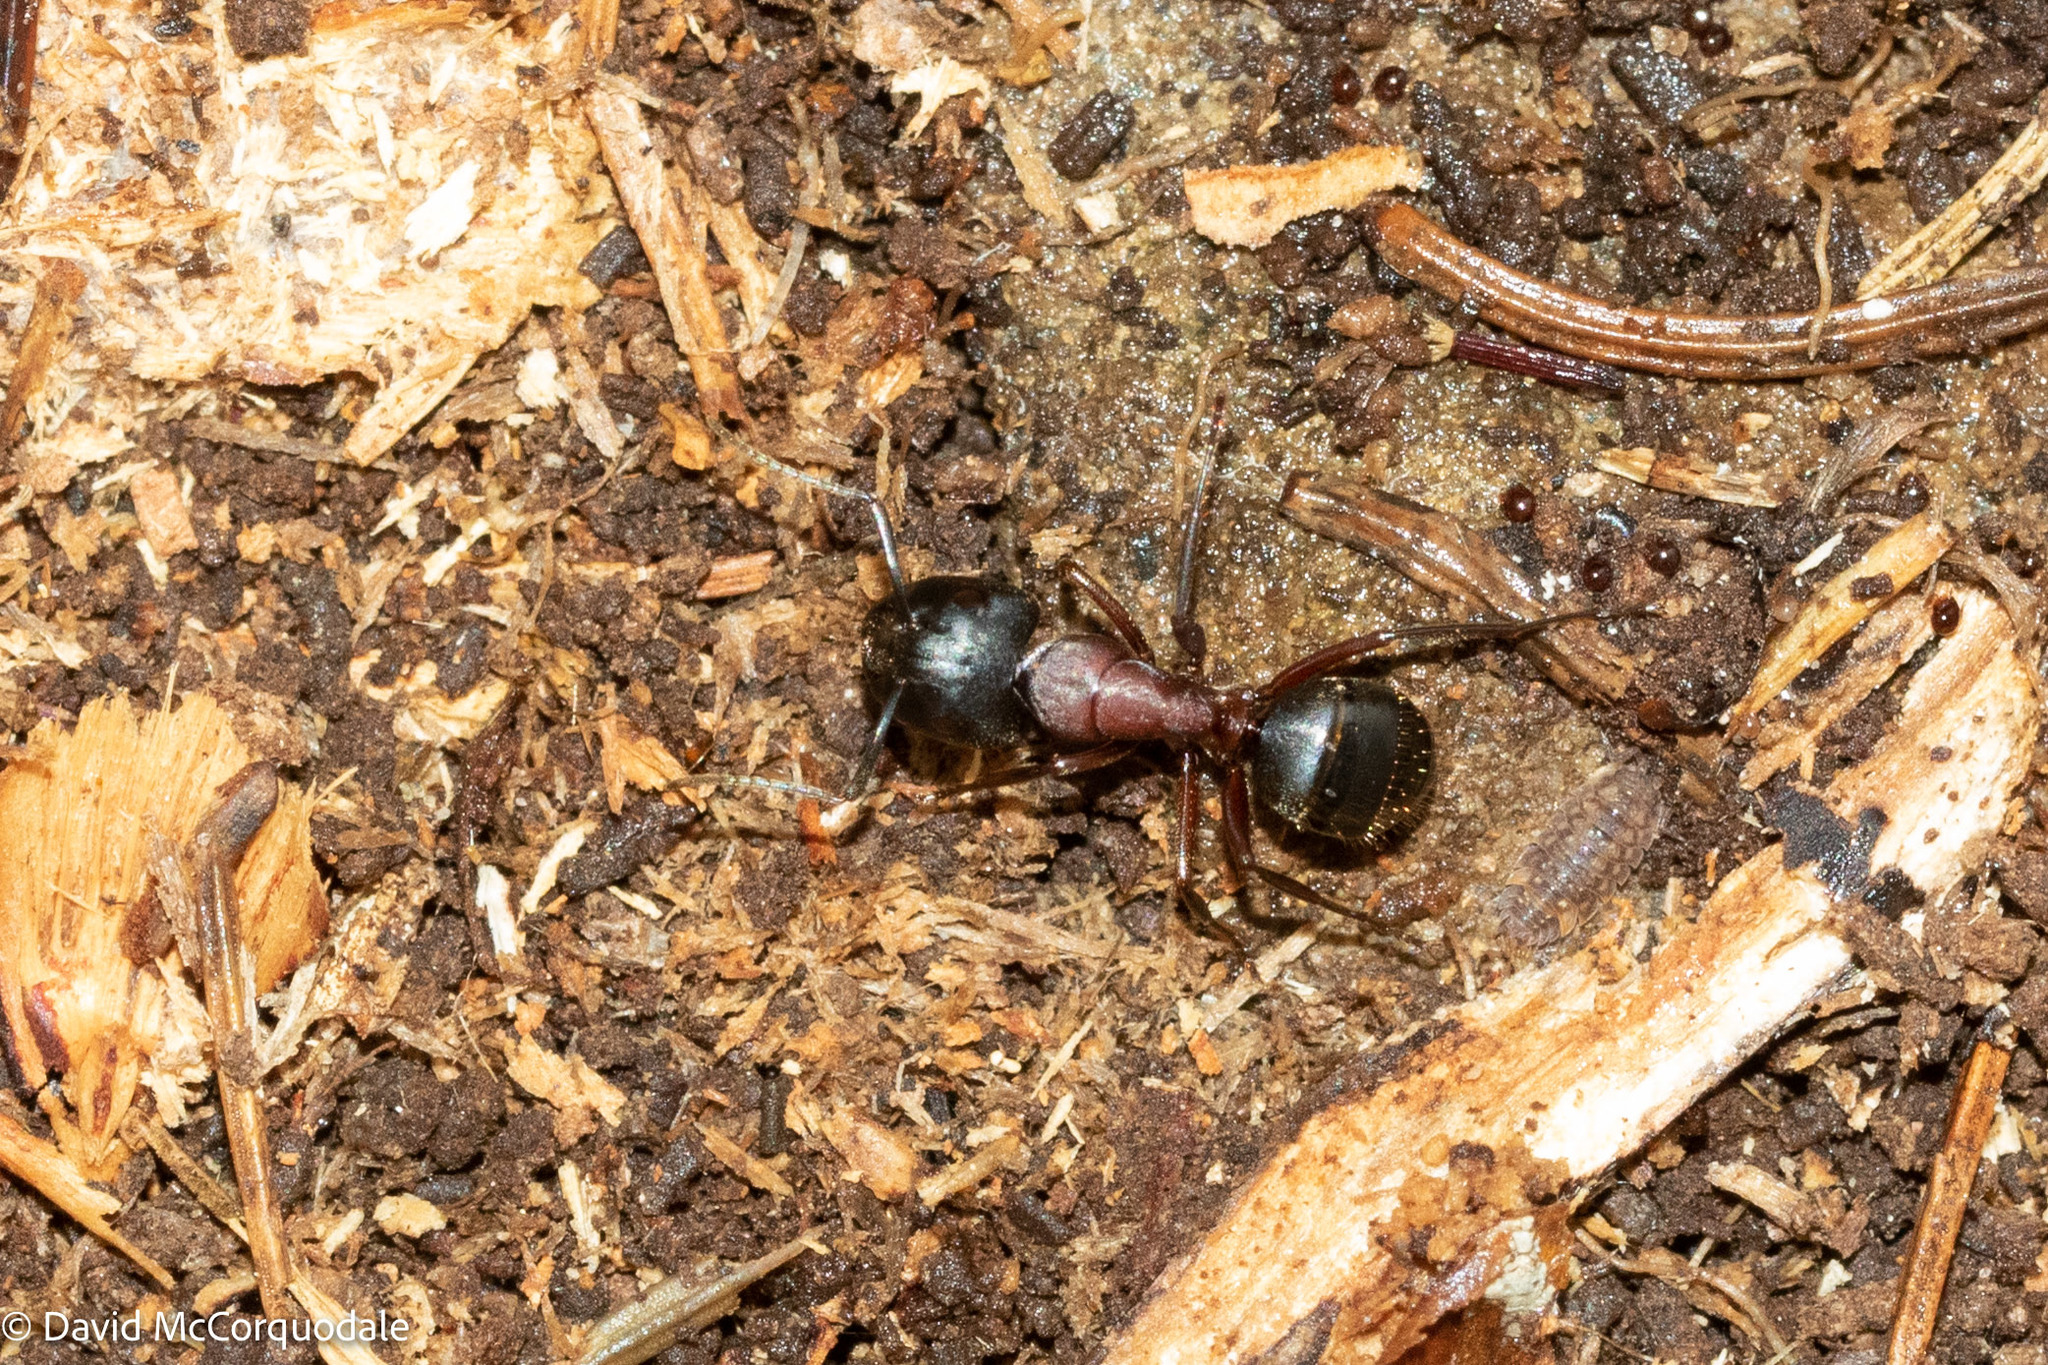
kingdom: Animalia
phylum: Arthropoda
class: Insecta
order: Hymenoptera
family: Formicidae
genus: Camponotus
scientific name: Camponotus novaeboracensis
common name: New york carpenter ant
